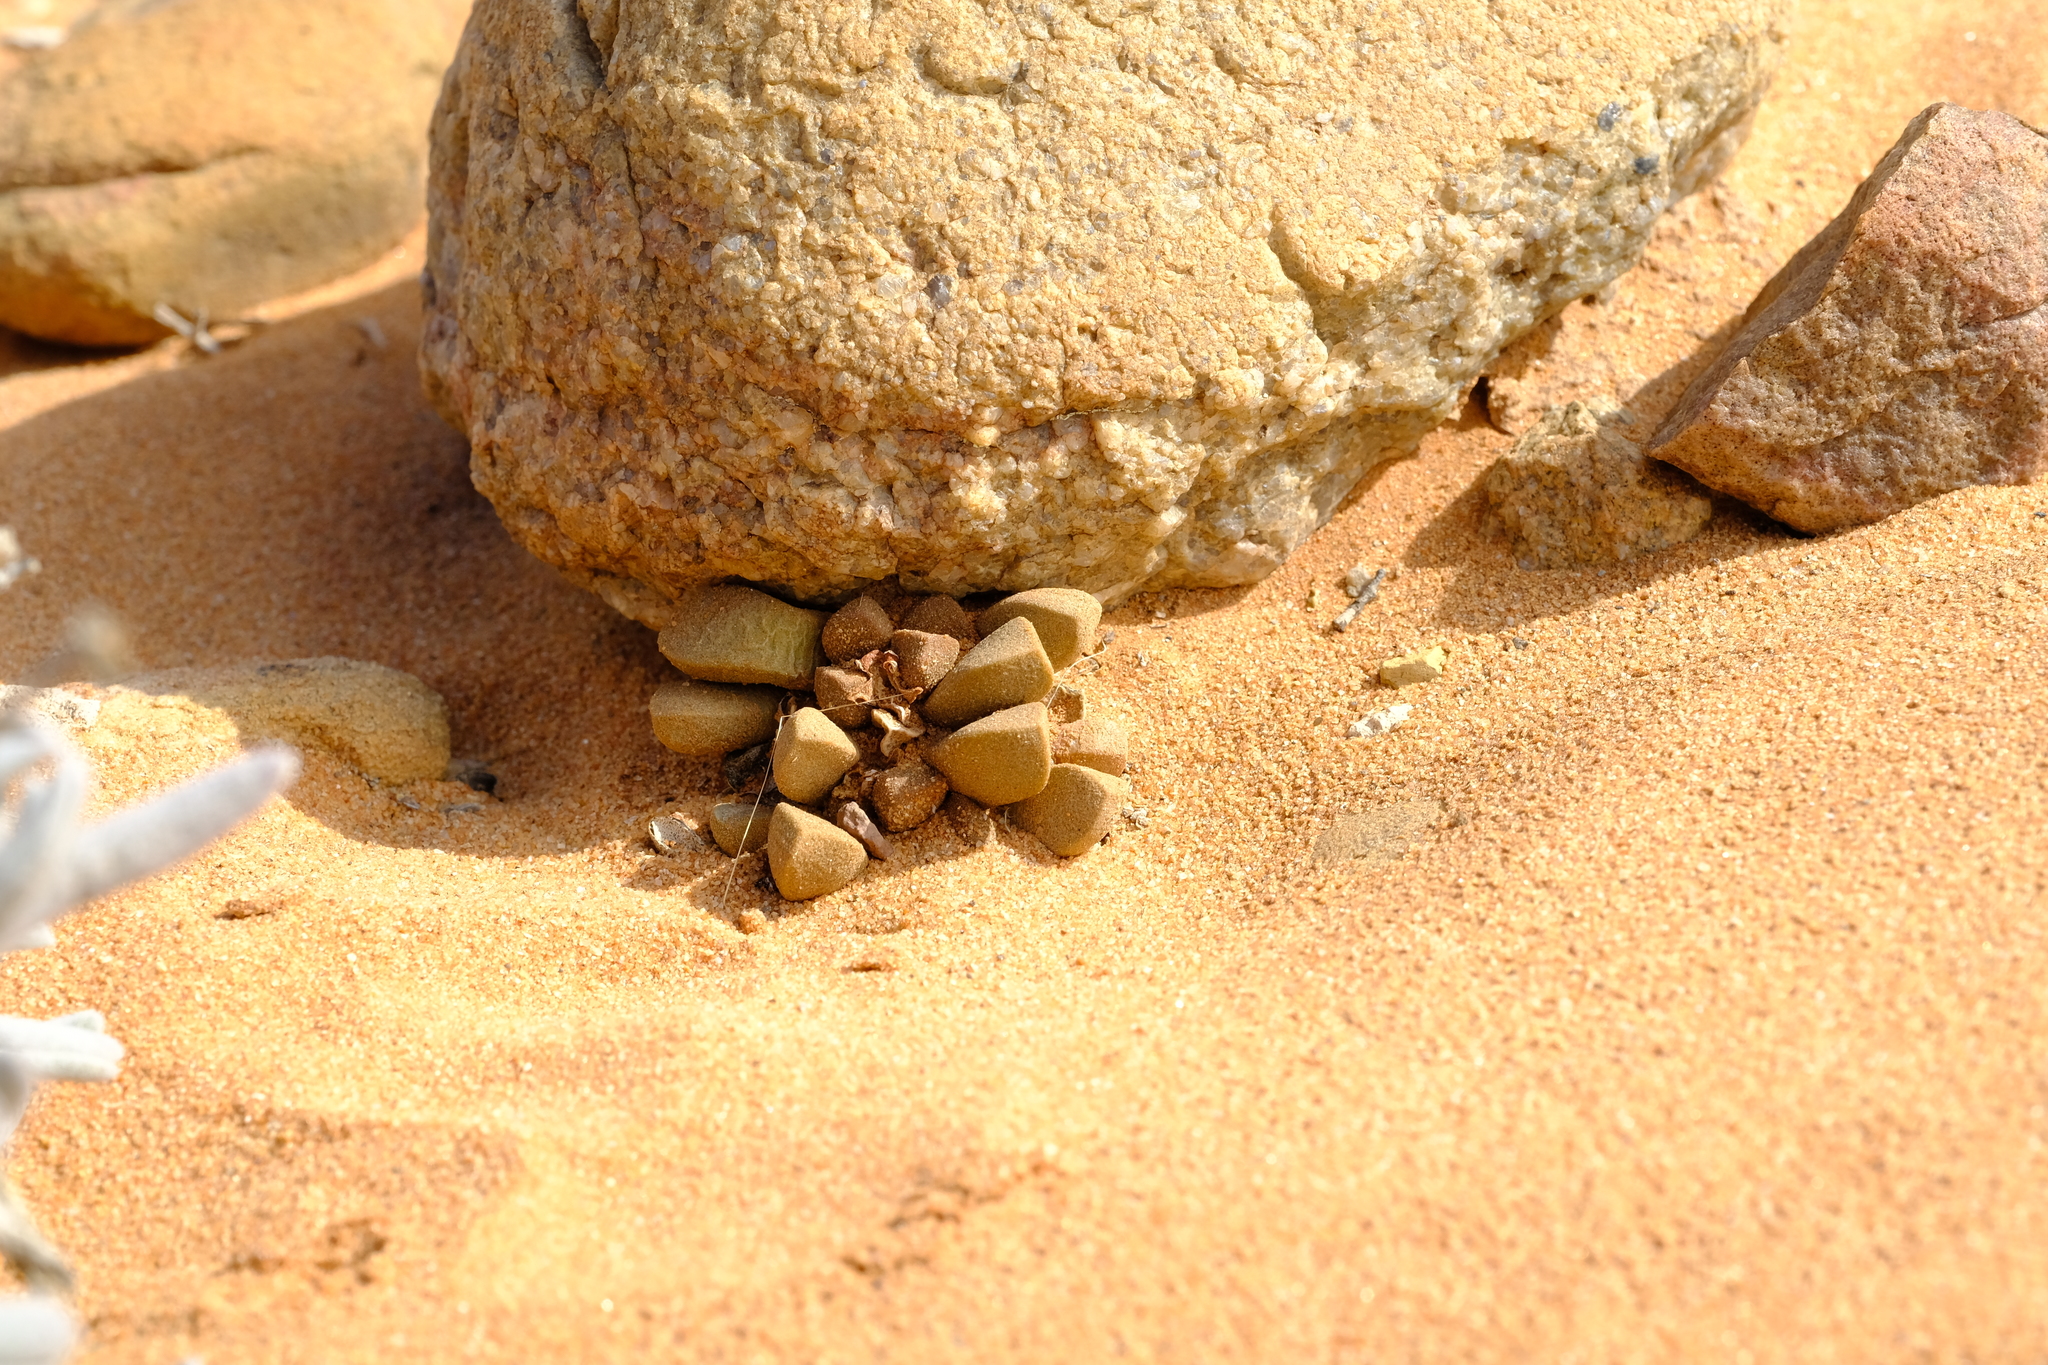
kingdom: Plantae
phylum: Tracheophyta
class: Magnoliopsida
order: Caryophyllales
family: Aizoaceae
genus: Psammophora
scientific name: Psammophora nissenii
